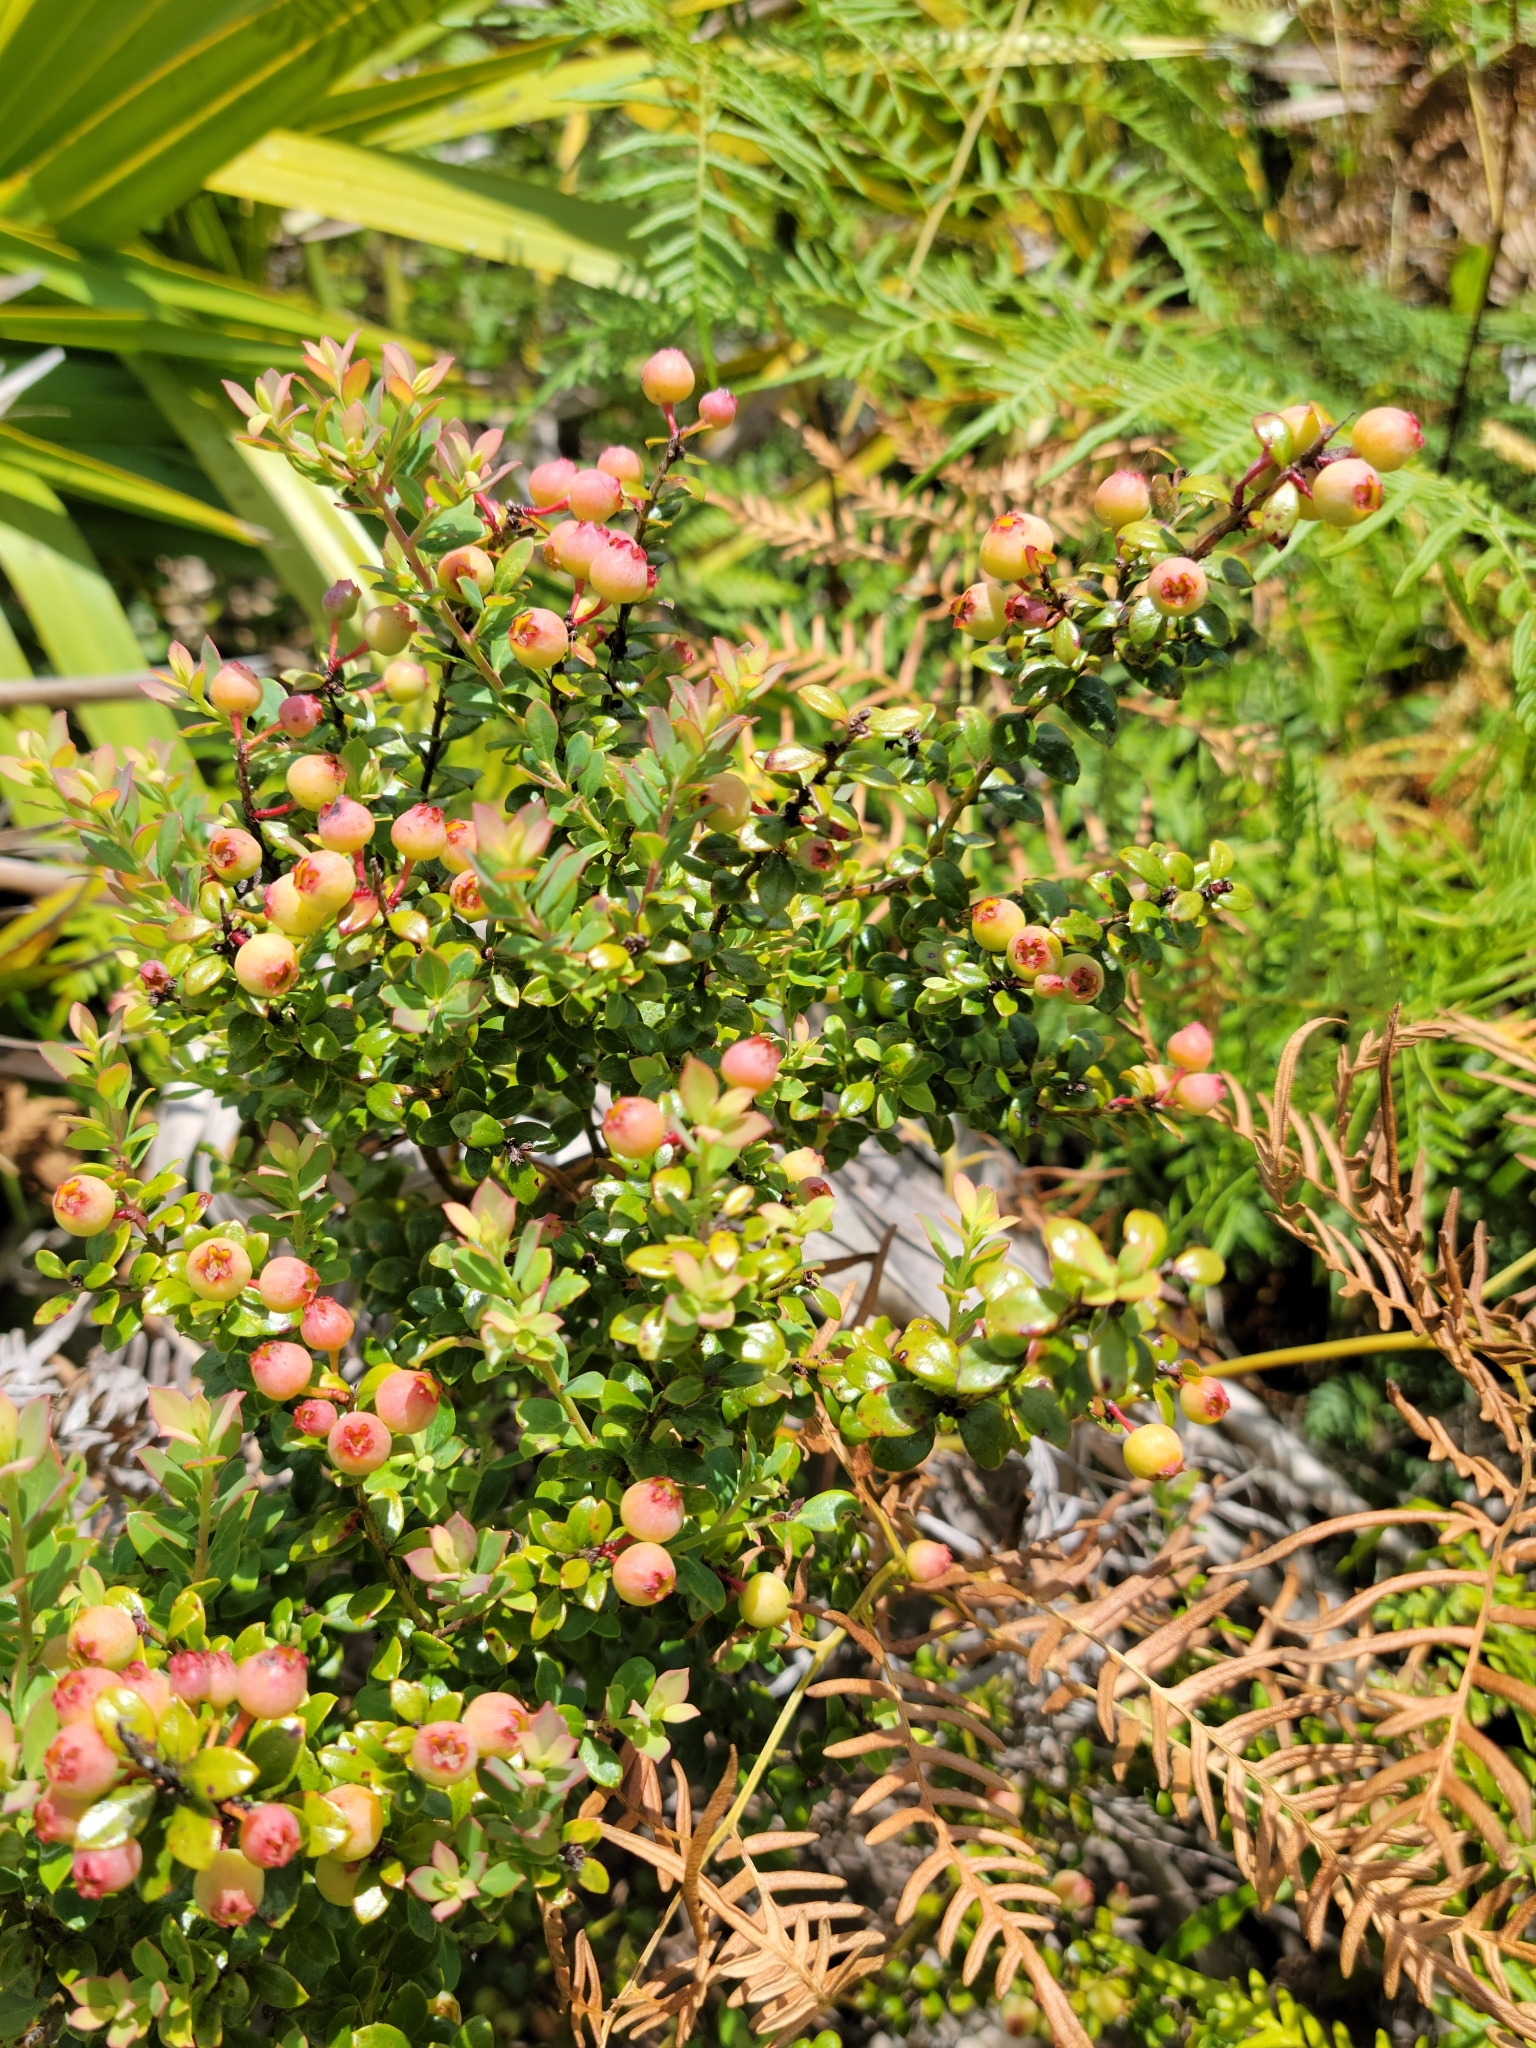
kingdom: Plantae
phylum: Tracheophyta
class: Magnoliopsida
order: Ericales
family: Ericaceae
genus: Vaccinium
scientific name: Vaccinium darrowii
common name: Darrow's blueberry
